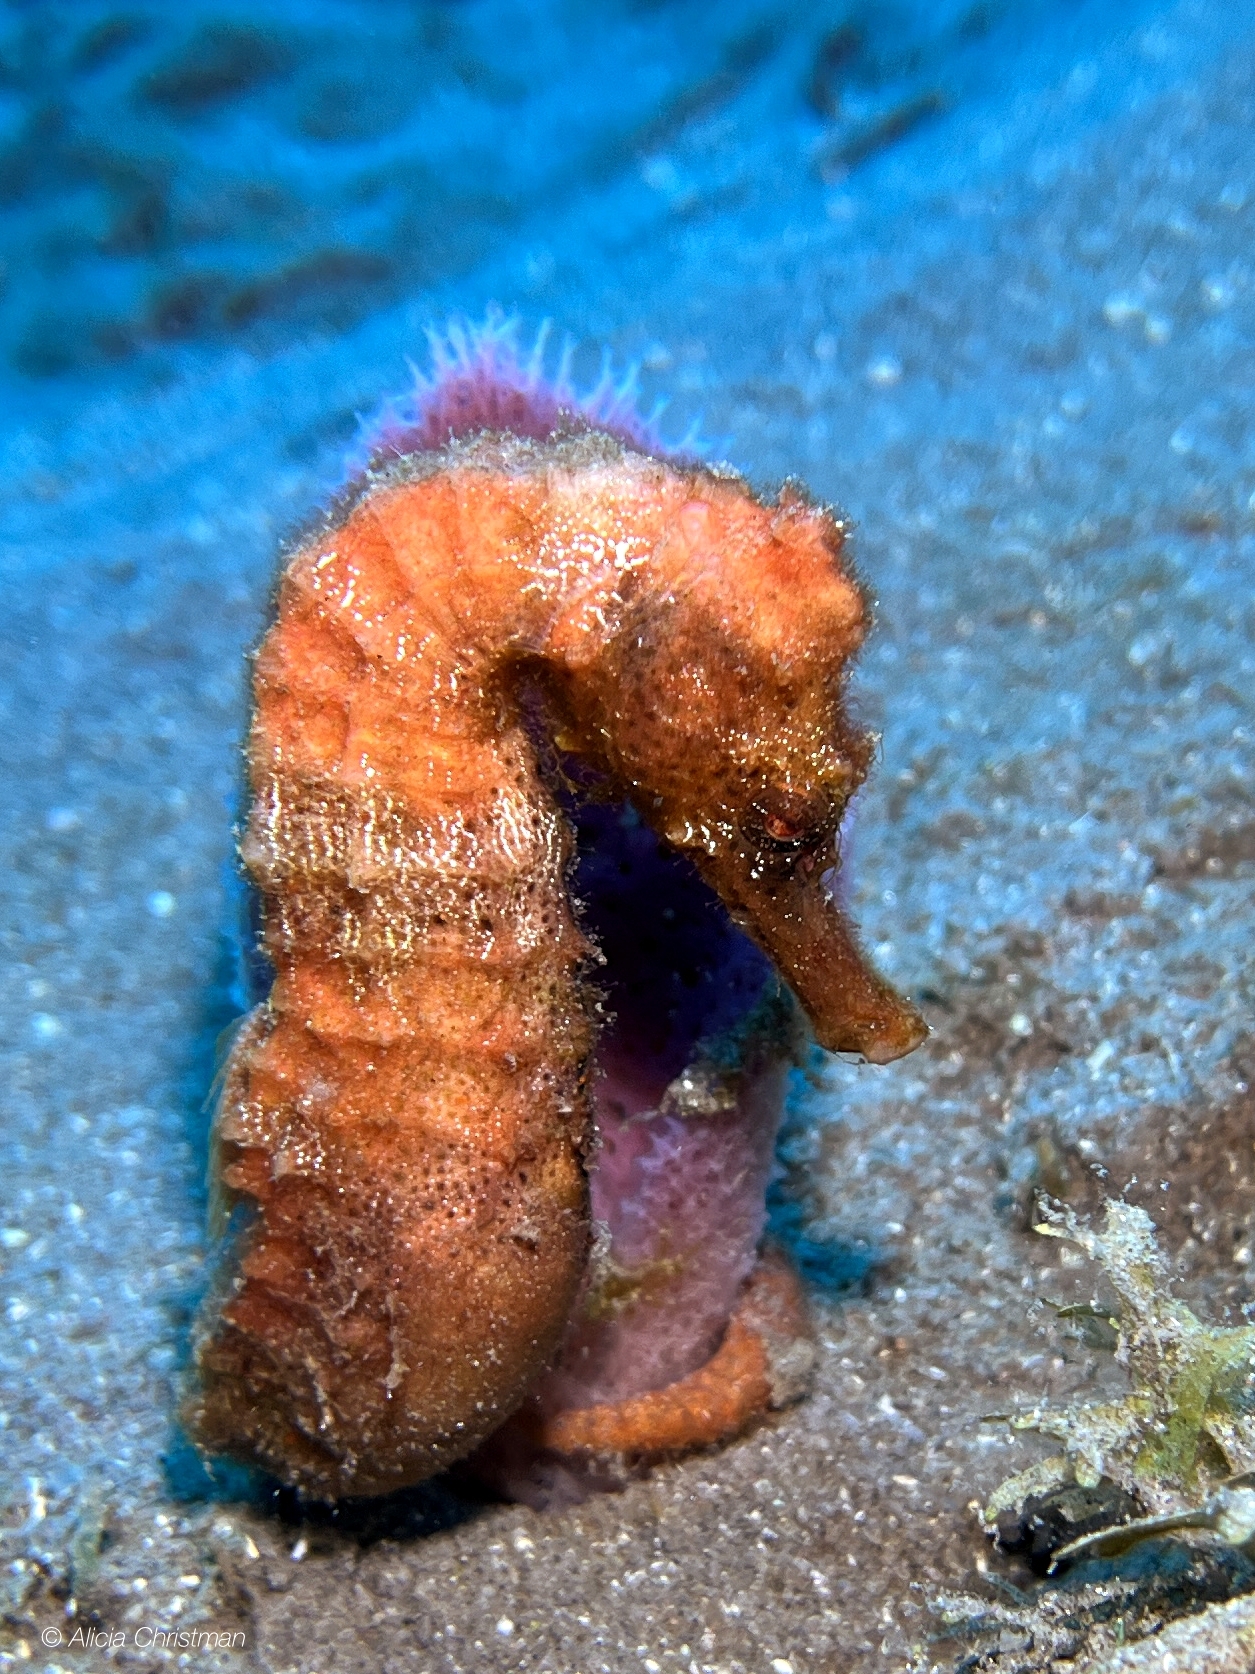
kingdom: Animalia
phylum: Chordata
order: Syngnathiformes
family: Syngnathidae
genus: Hippocampus
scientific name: Hippocampus reidi
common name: Slender seahorse
